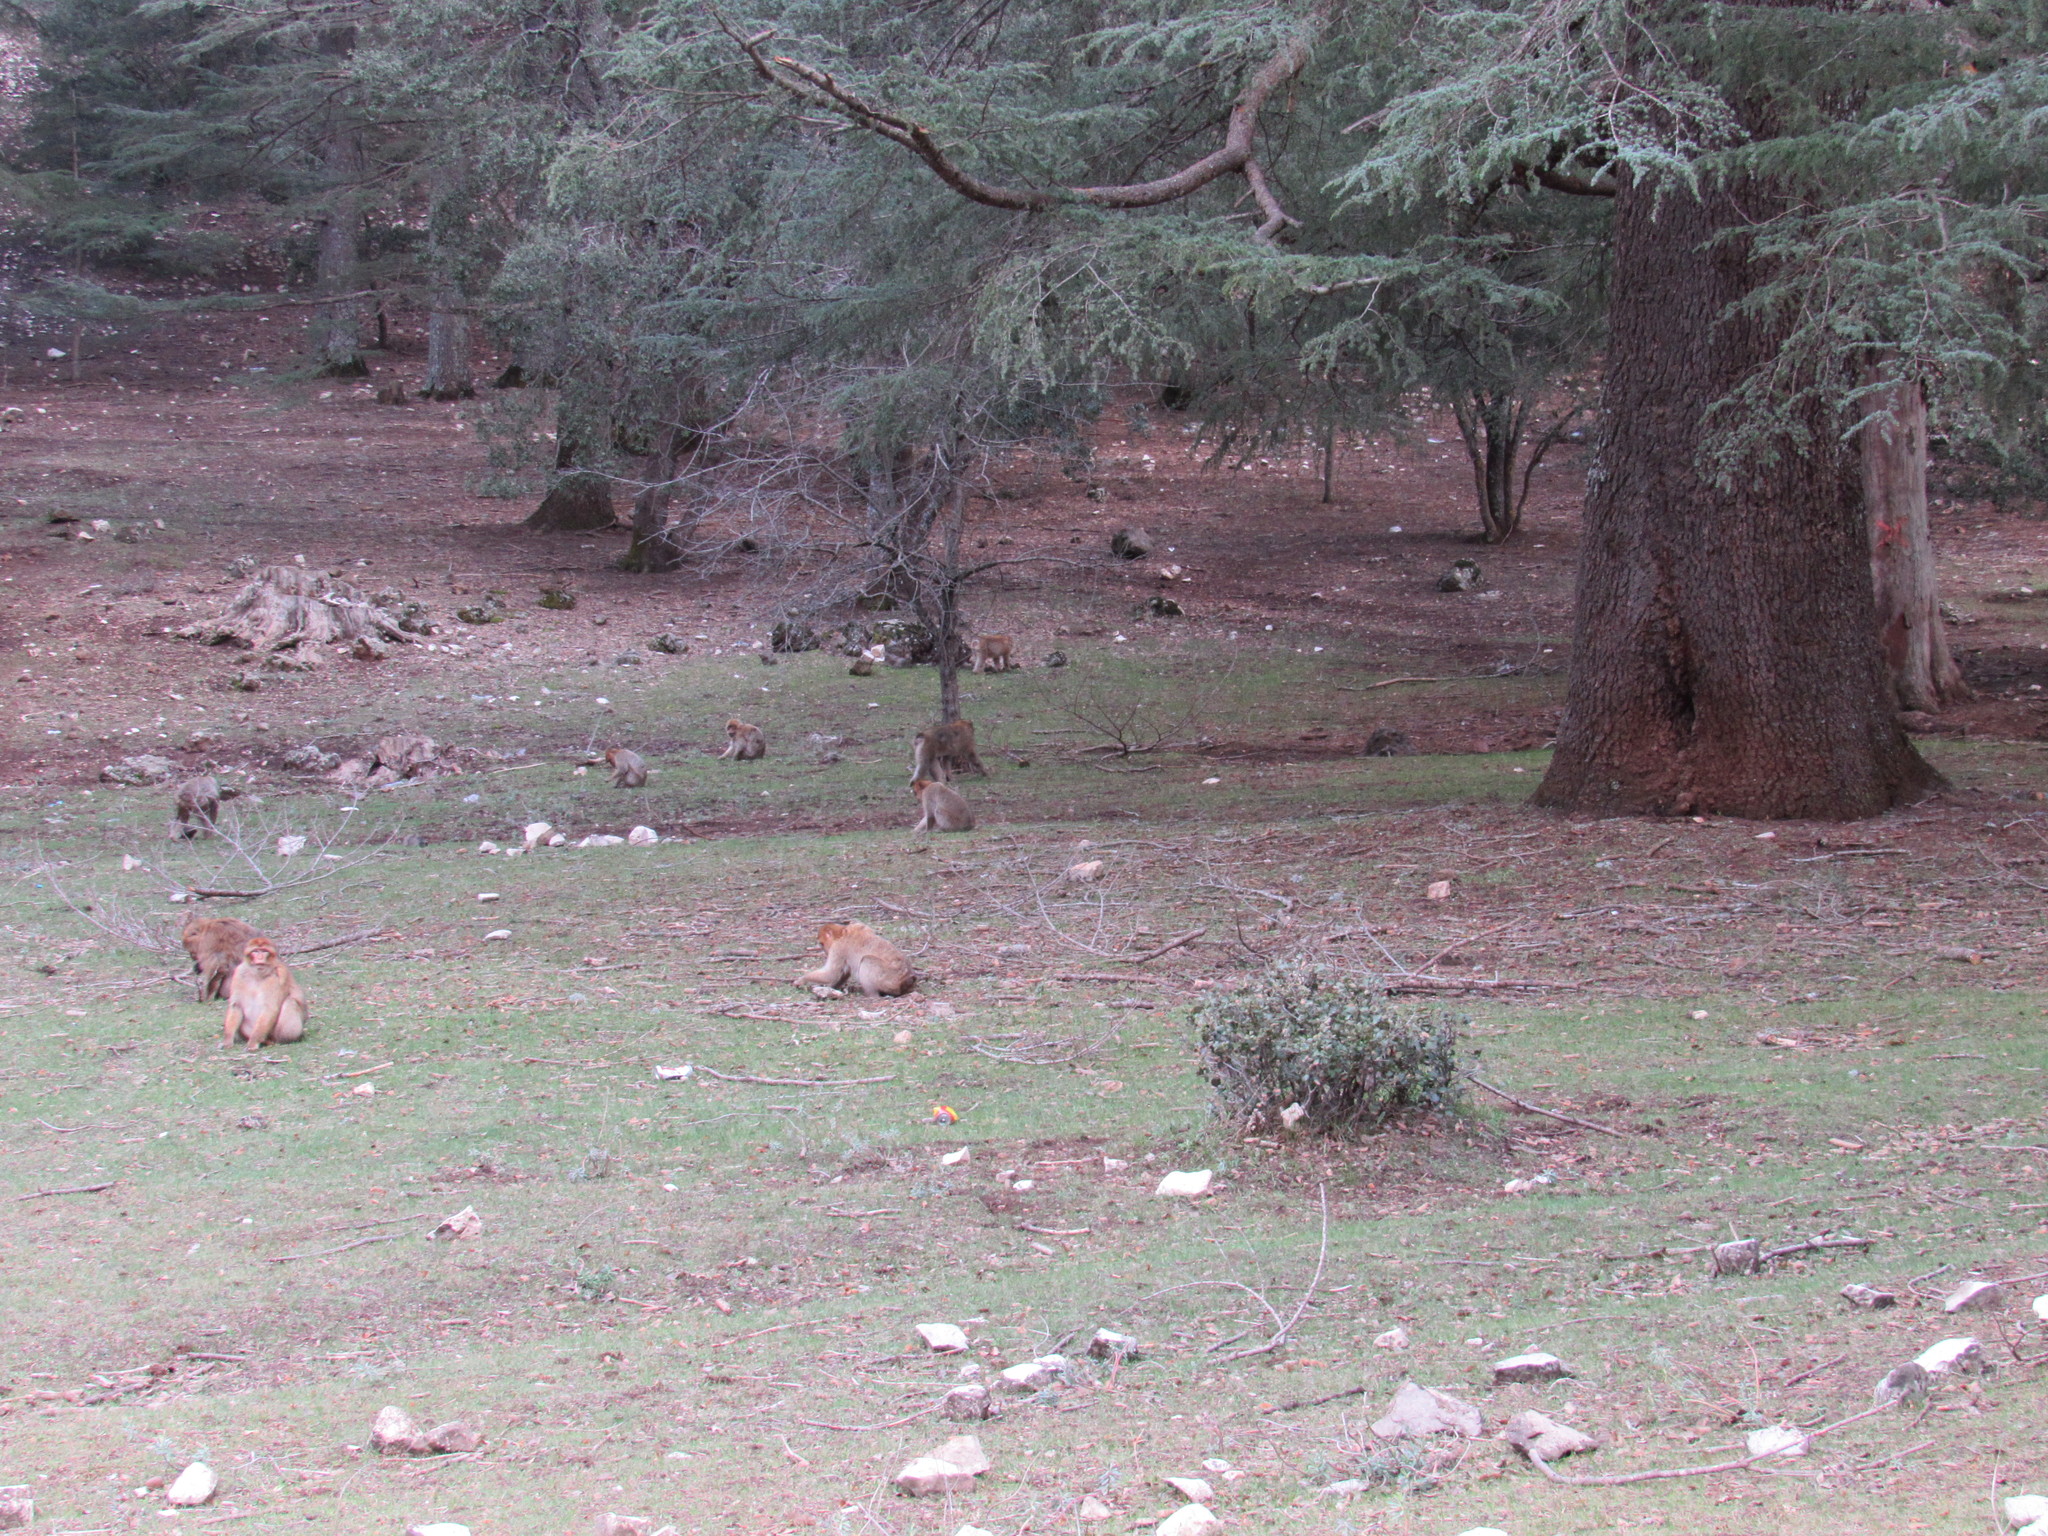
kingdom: Animalia
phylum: Chordata
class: Mammalia
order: Primates
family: Cercopithecidae
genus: Macaca
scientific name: Macaca sylvanus
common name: Barbary macaque
